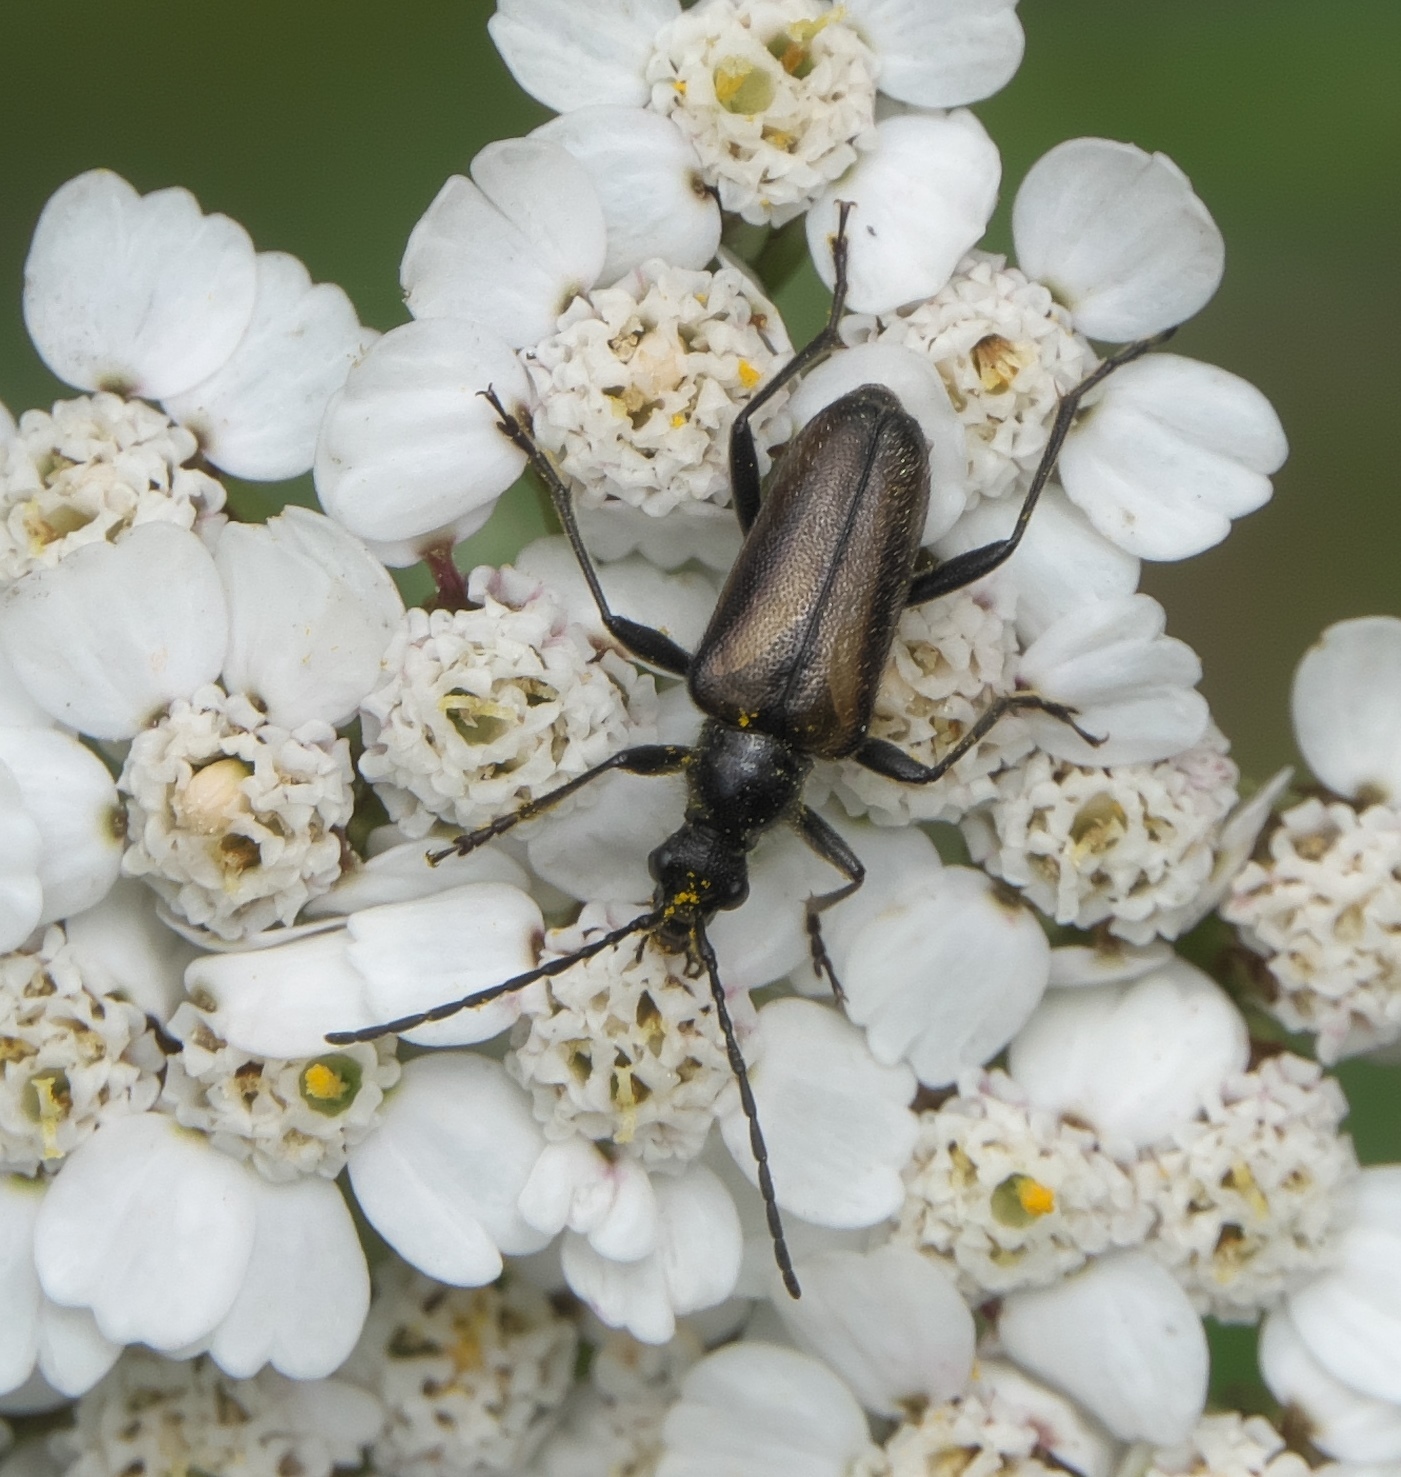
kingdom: Animalia
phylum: Arthropoda
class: Insecta
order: Coleoptera
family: Cerambycidae
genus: Gnathacmaeops
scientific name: Gnathacmaeops pratensis
